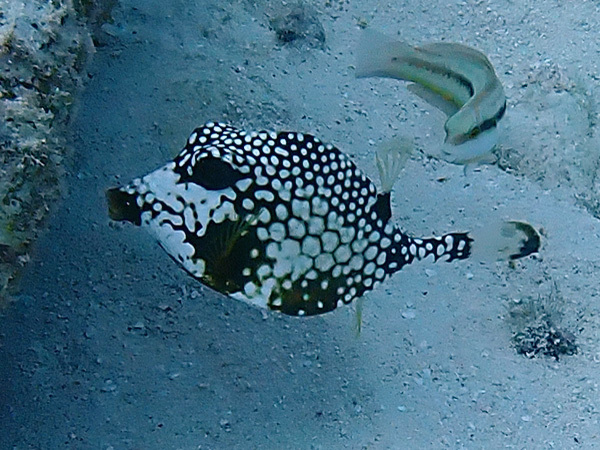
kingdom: Animalia
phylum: Chordata
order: Tetraodontiformes
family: Ostraciidae
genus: Lactophrys
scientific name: Lactophrys triqueter
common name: Smooth trunkfish
